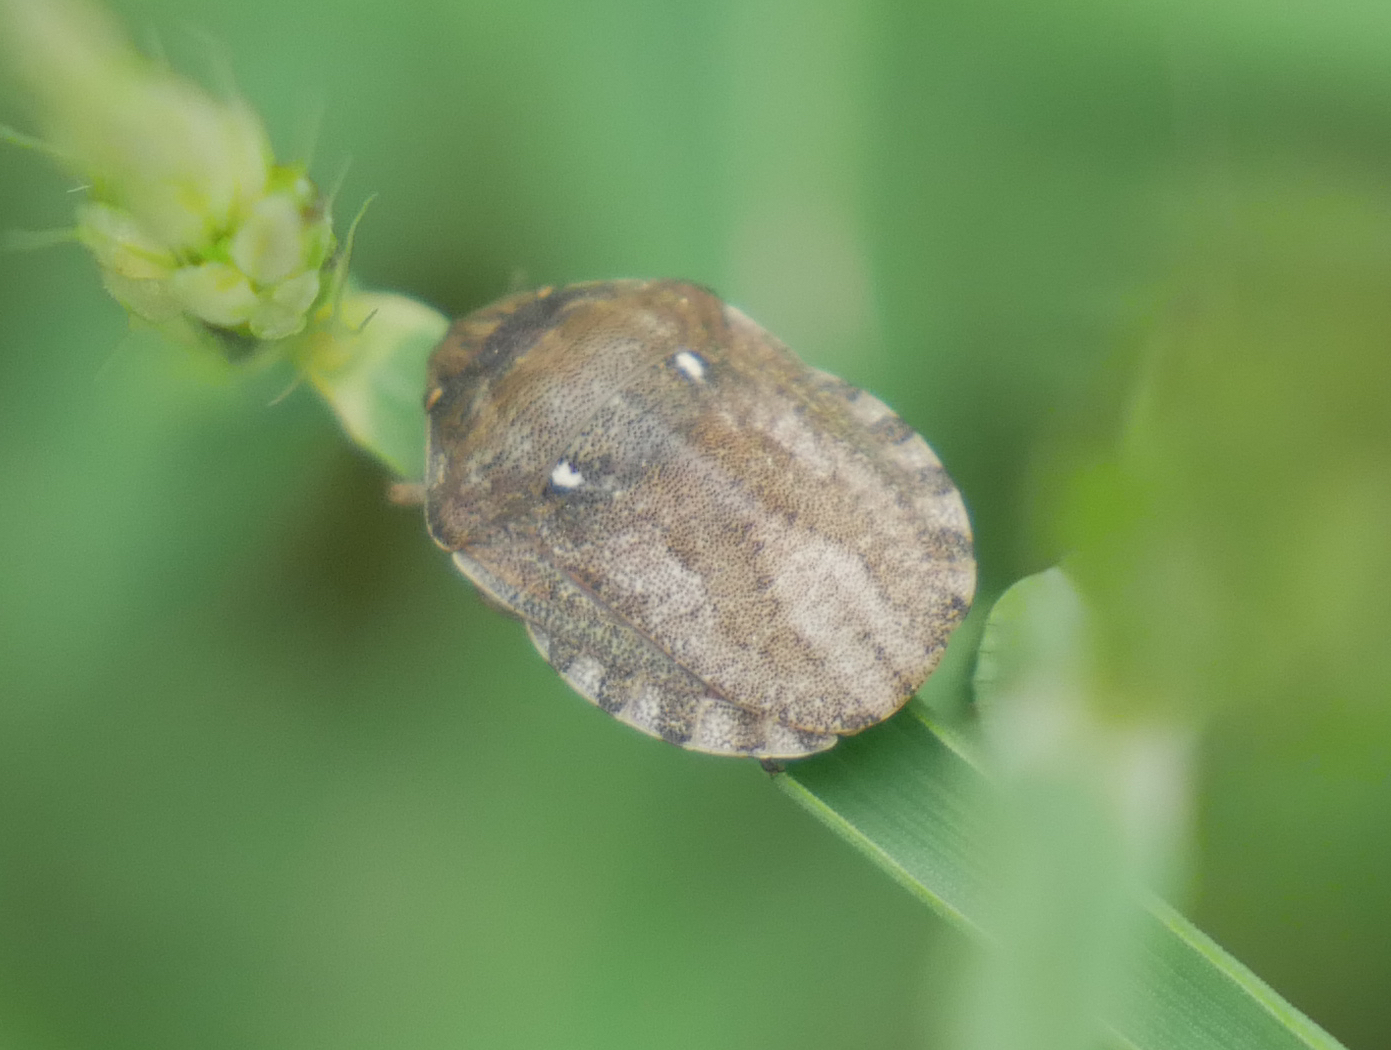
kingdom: Animalia
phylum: Arthropoda
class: Insecta
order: Hemiptera
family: Scutelleridae
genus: Eurygaster
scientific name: Eurygaster maura
